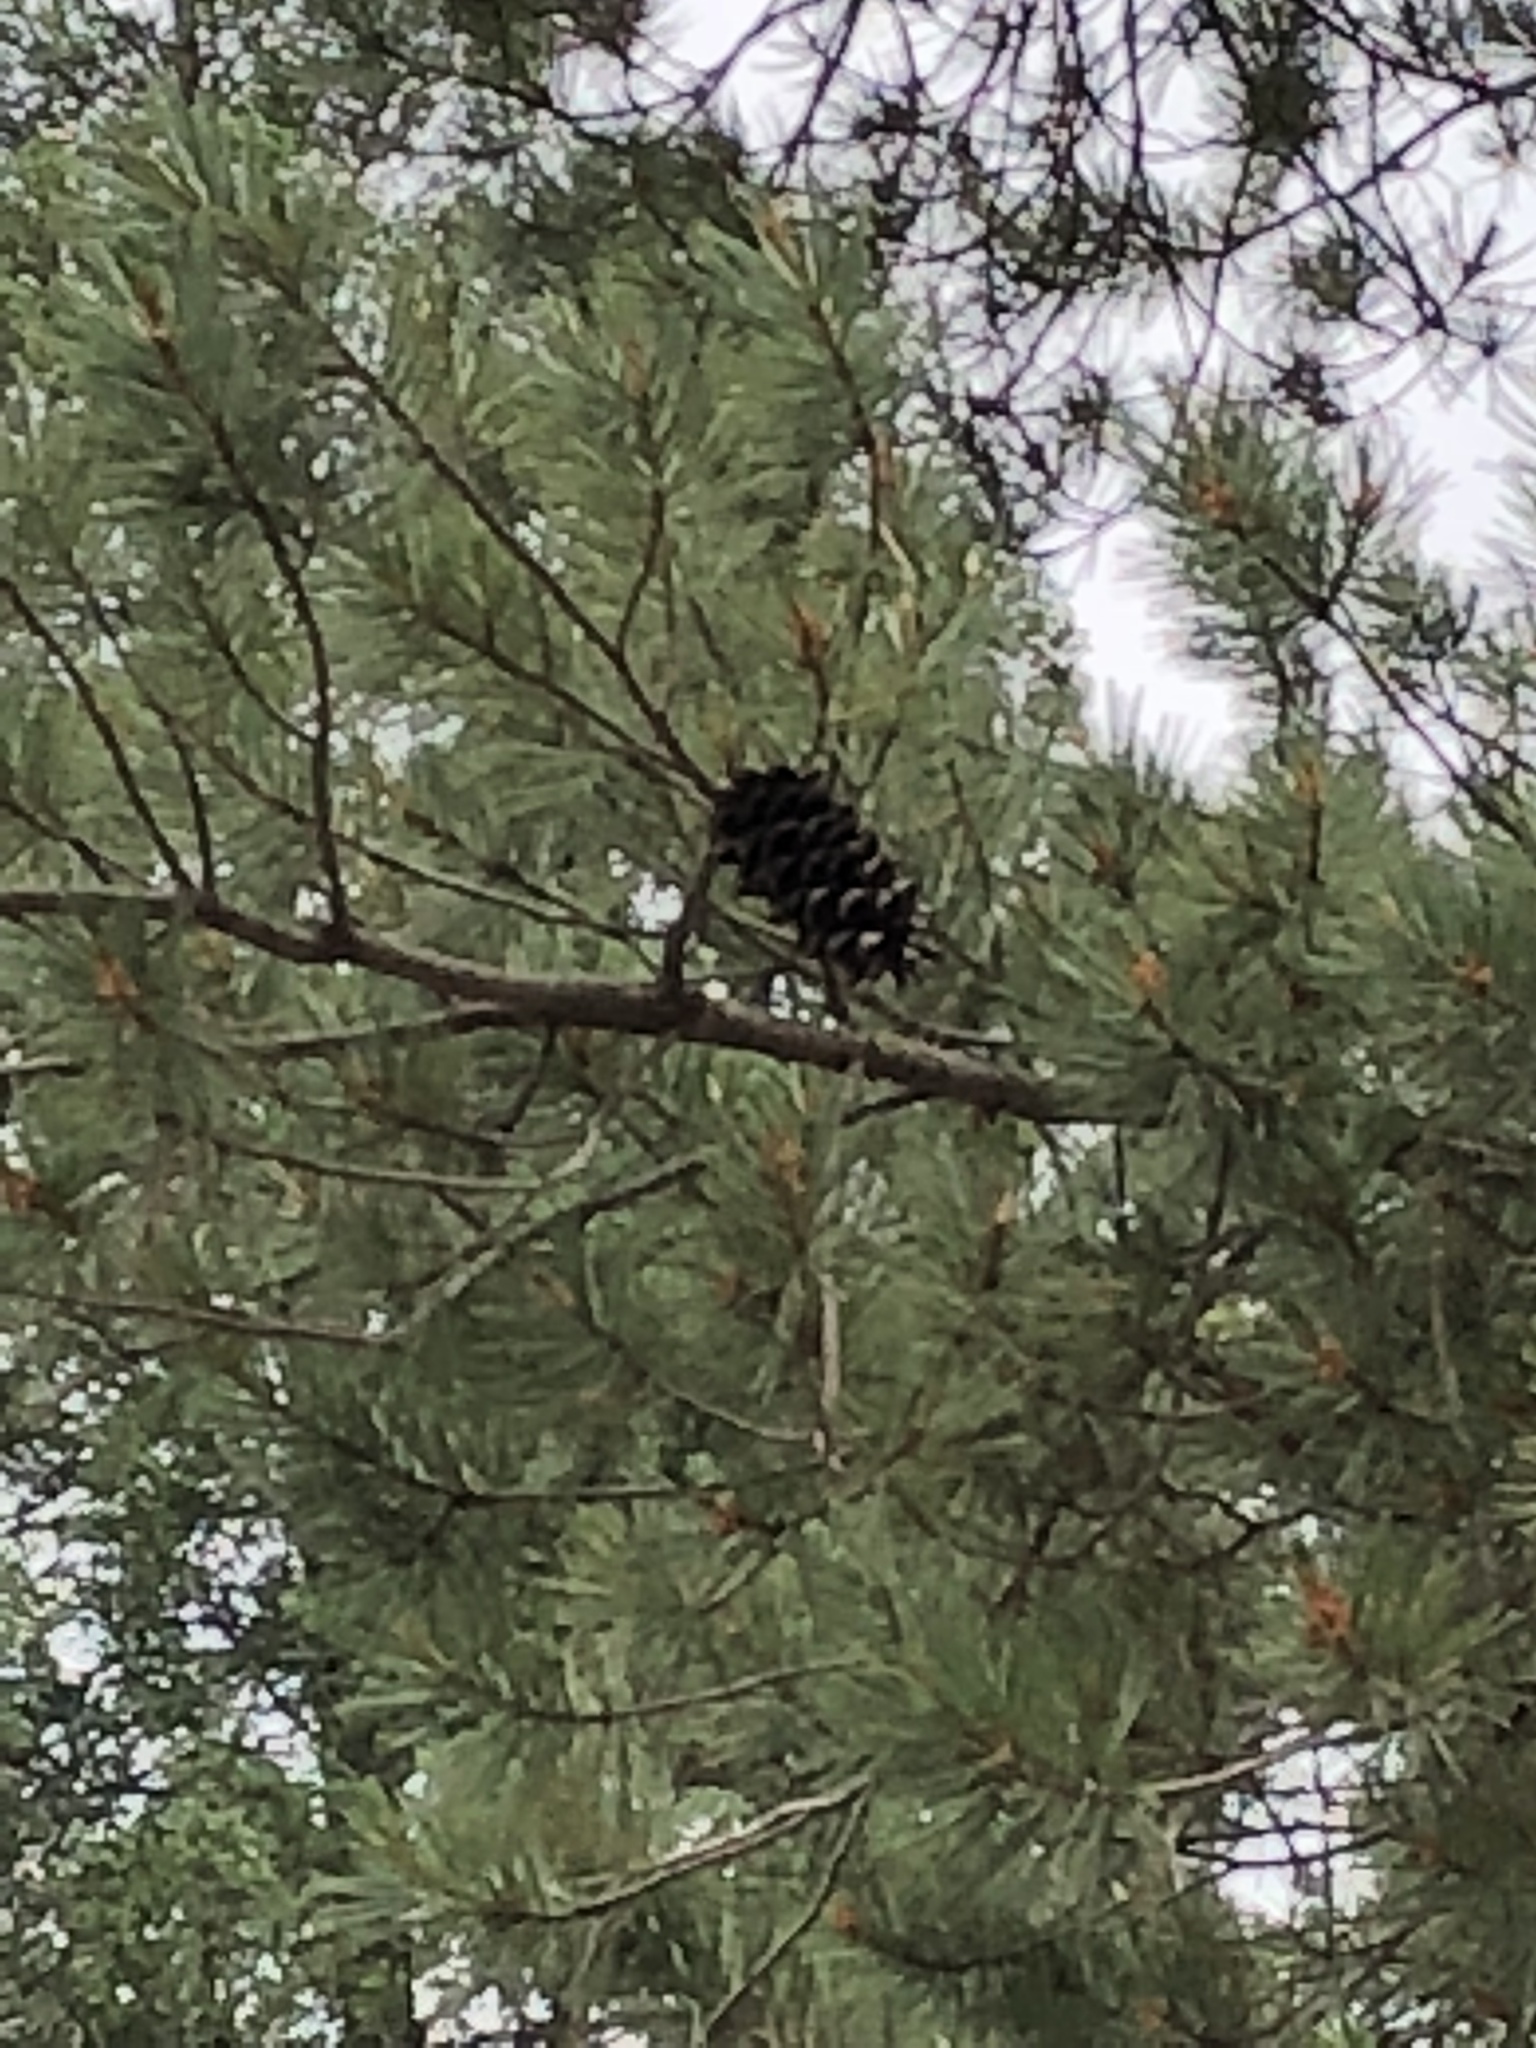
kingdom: Plantae
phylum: Tracheophyta
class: Pinopsida
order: Pinales
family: Pinaceae
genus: Pinus
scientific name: Pinus strobiformis
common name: Southwestern white pine
